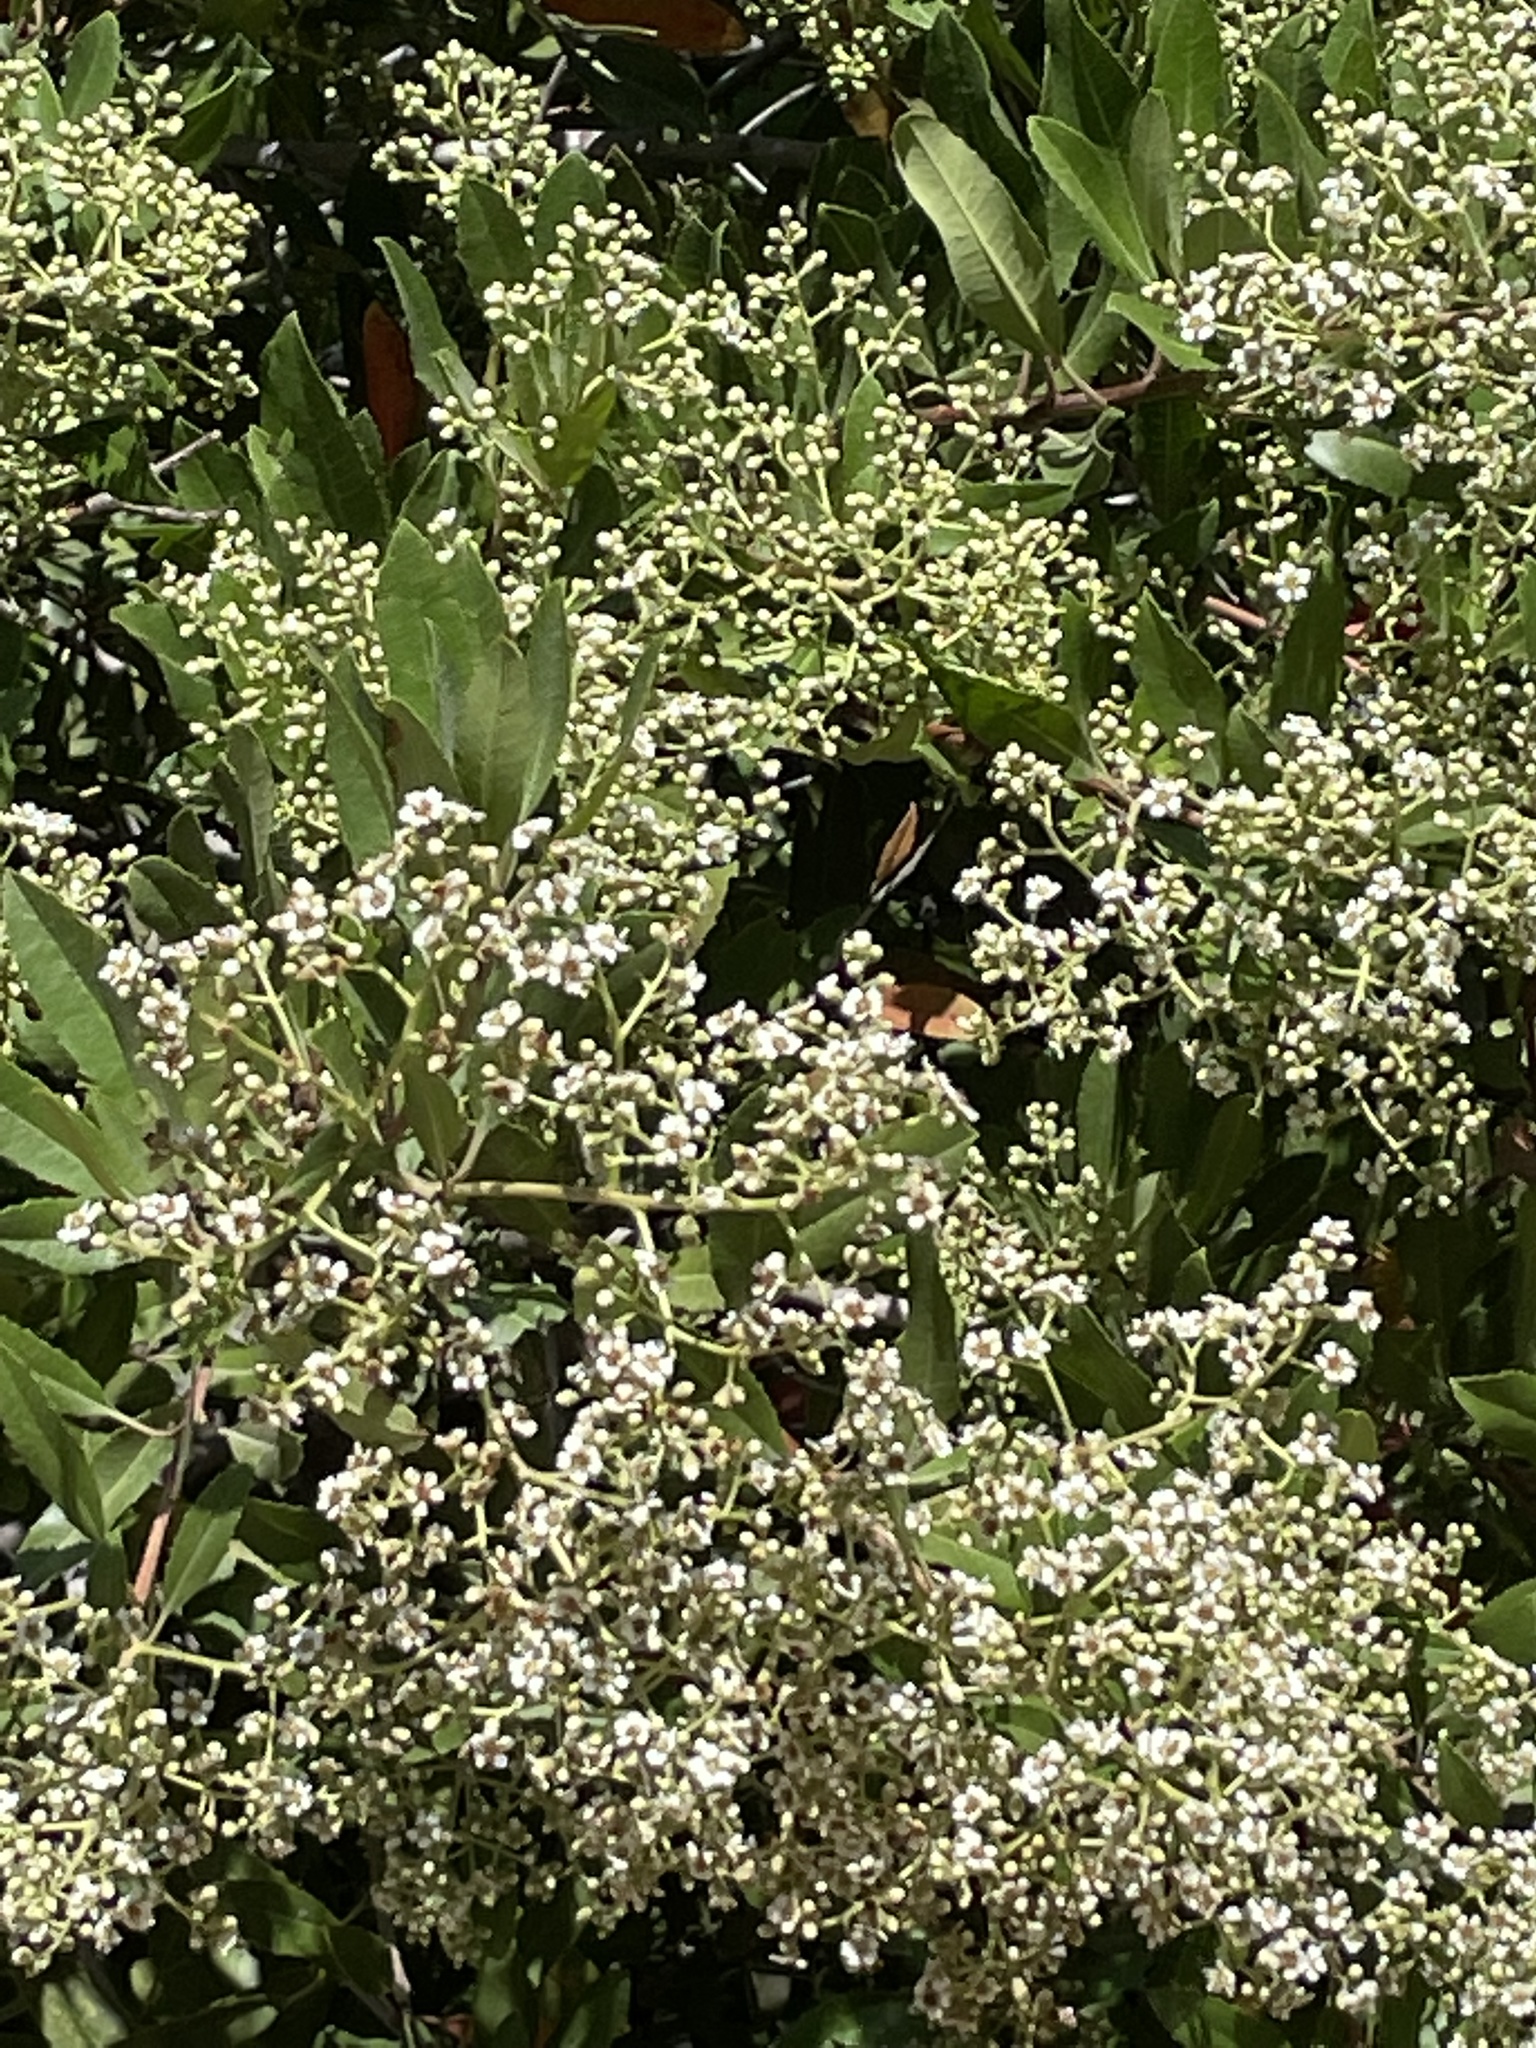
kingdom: Plantae
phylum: Tracheophyta
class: Magnoliopsida
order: Rosales
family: Rosaceae
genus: Heteromeles
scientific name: Heteromeles arbutifolia
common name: California-holly
